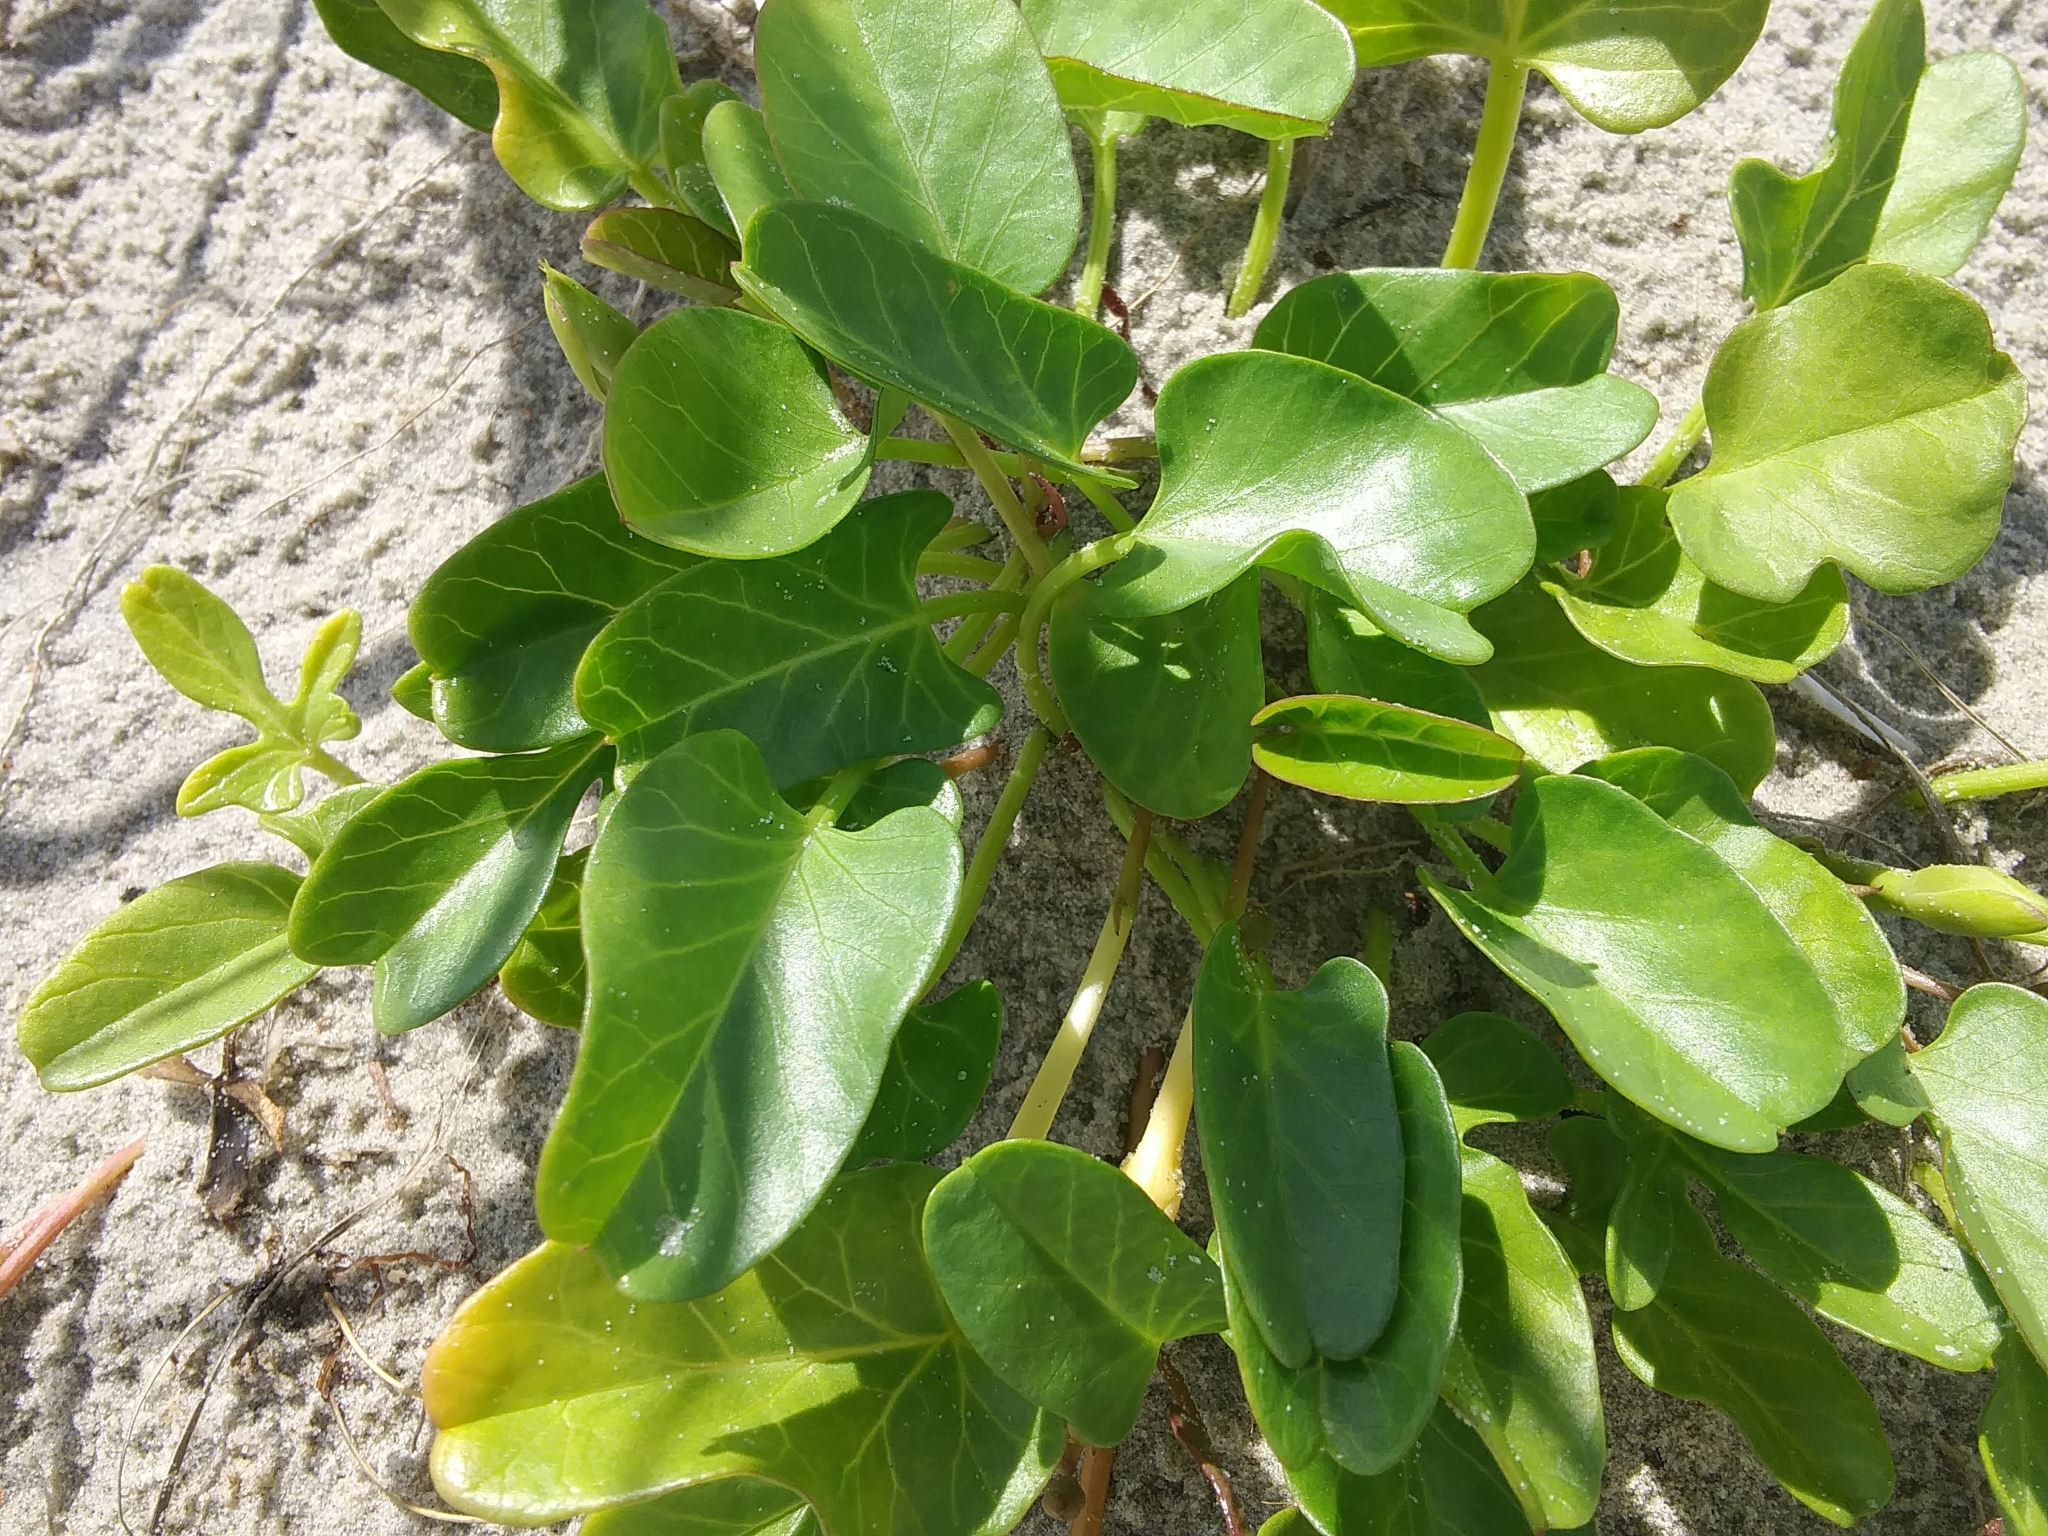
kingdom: Plantae
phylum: Tracheophyta
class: Magnoliopsida
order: Solanales
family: Convolvulaceae
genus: Ipomoea
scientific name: Ipomoea imperati
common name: Fiddle-leaf morning-glory
